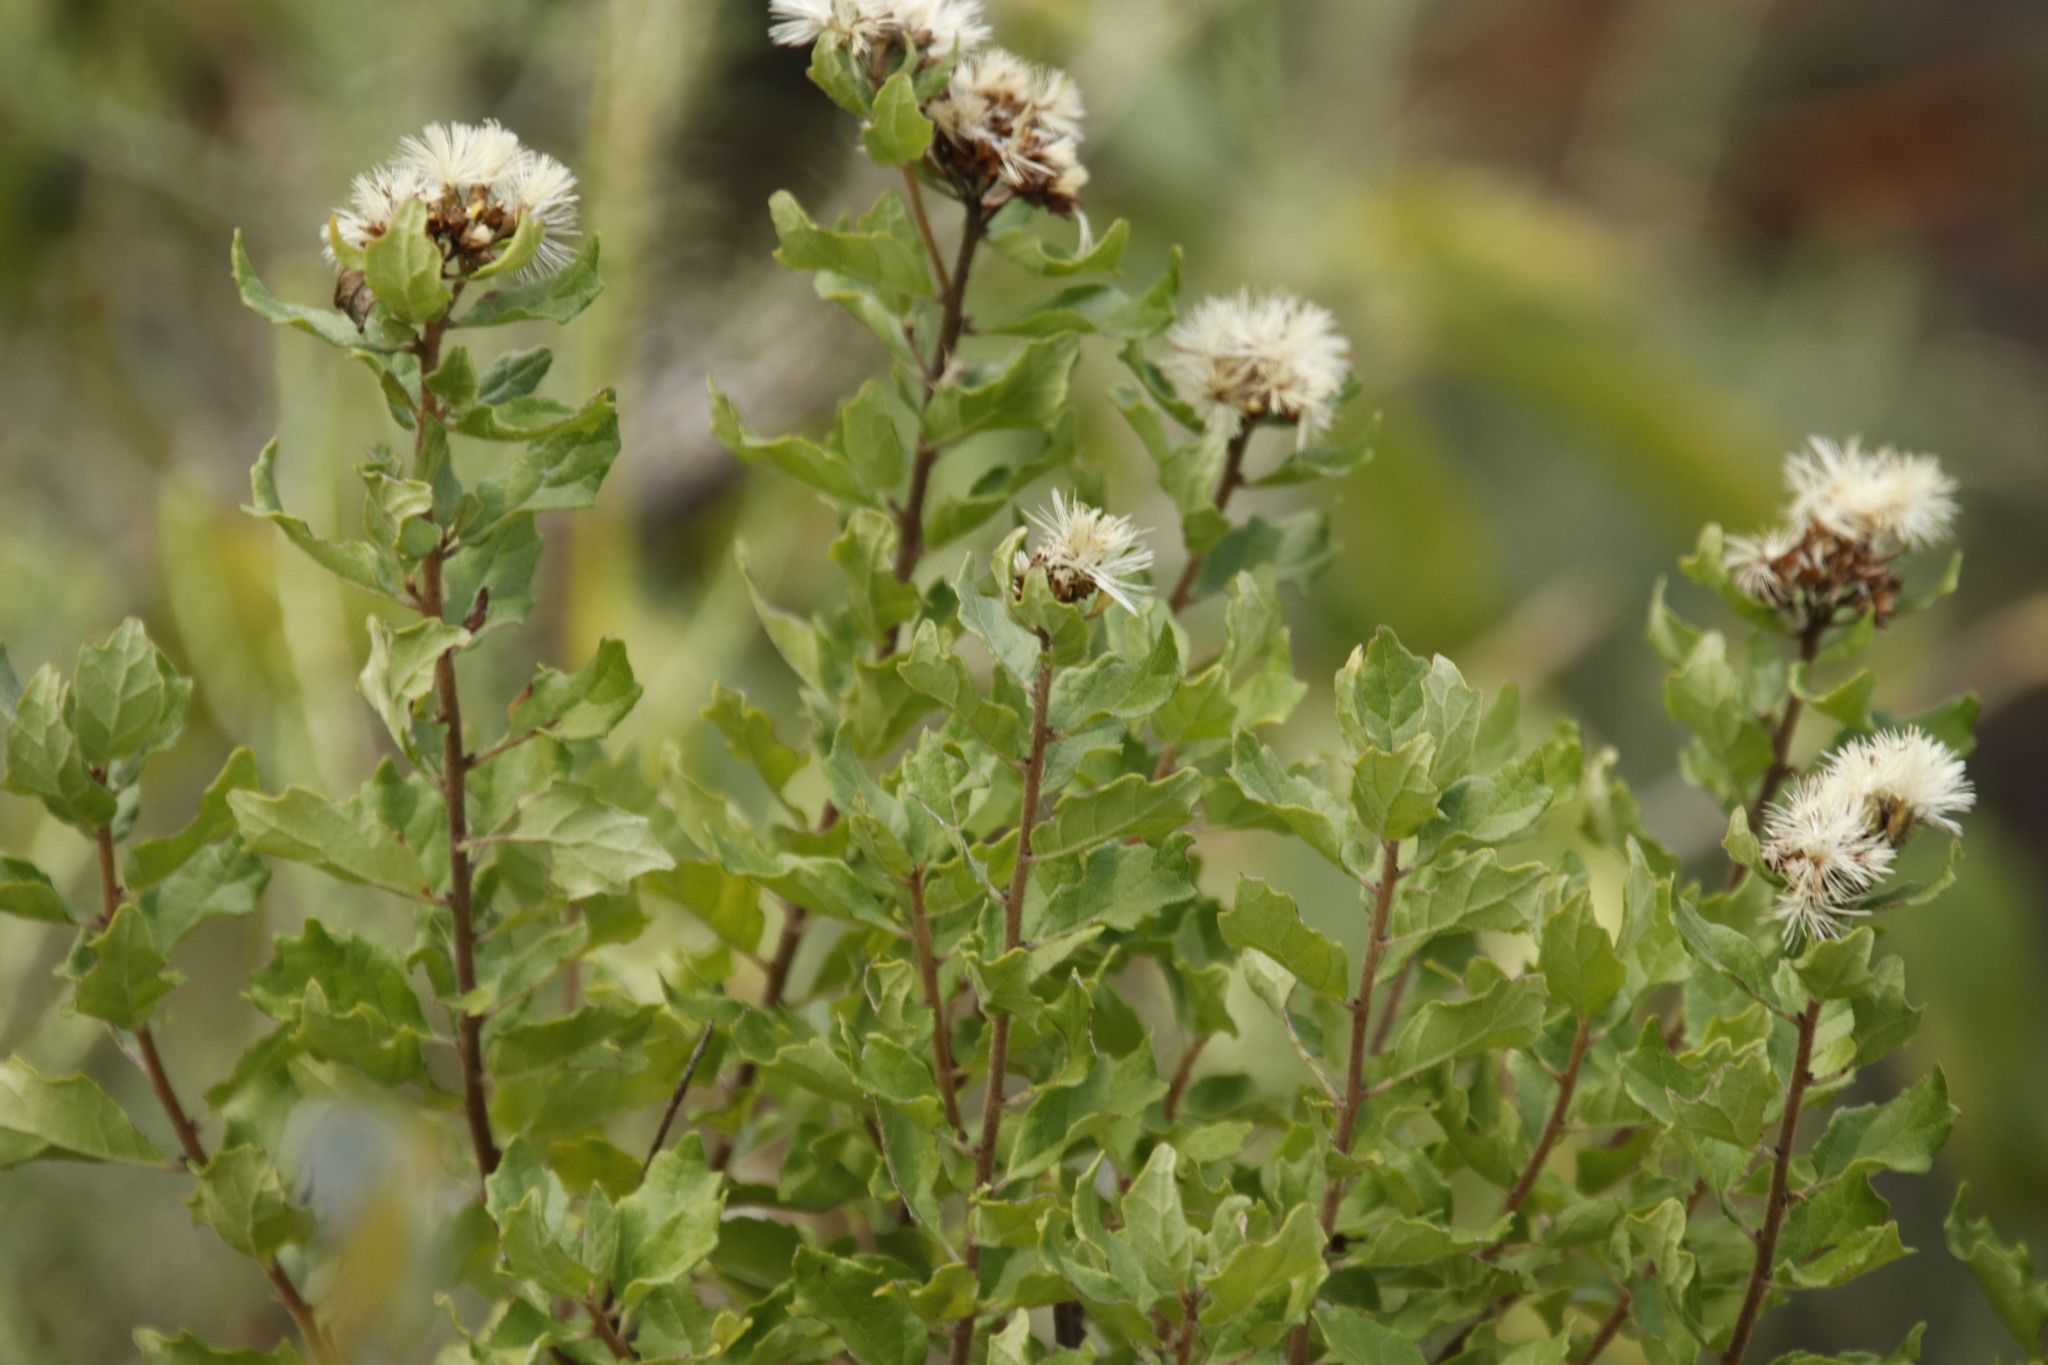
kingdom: Plantae
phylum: Tracheophyta
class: Magnoliopsida
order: Asterales
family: Asteraceae
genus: Gymnanthemum
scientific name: Gymnanthemum triflorum
